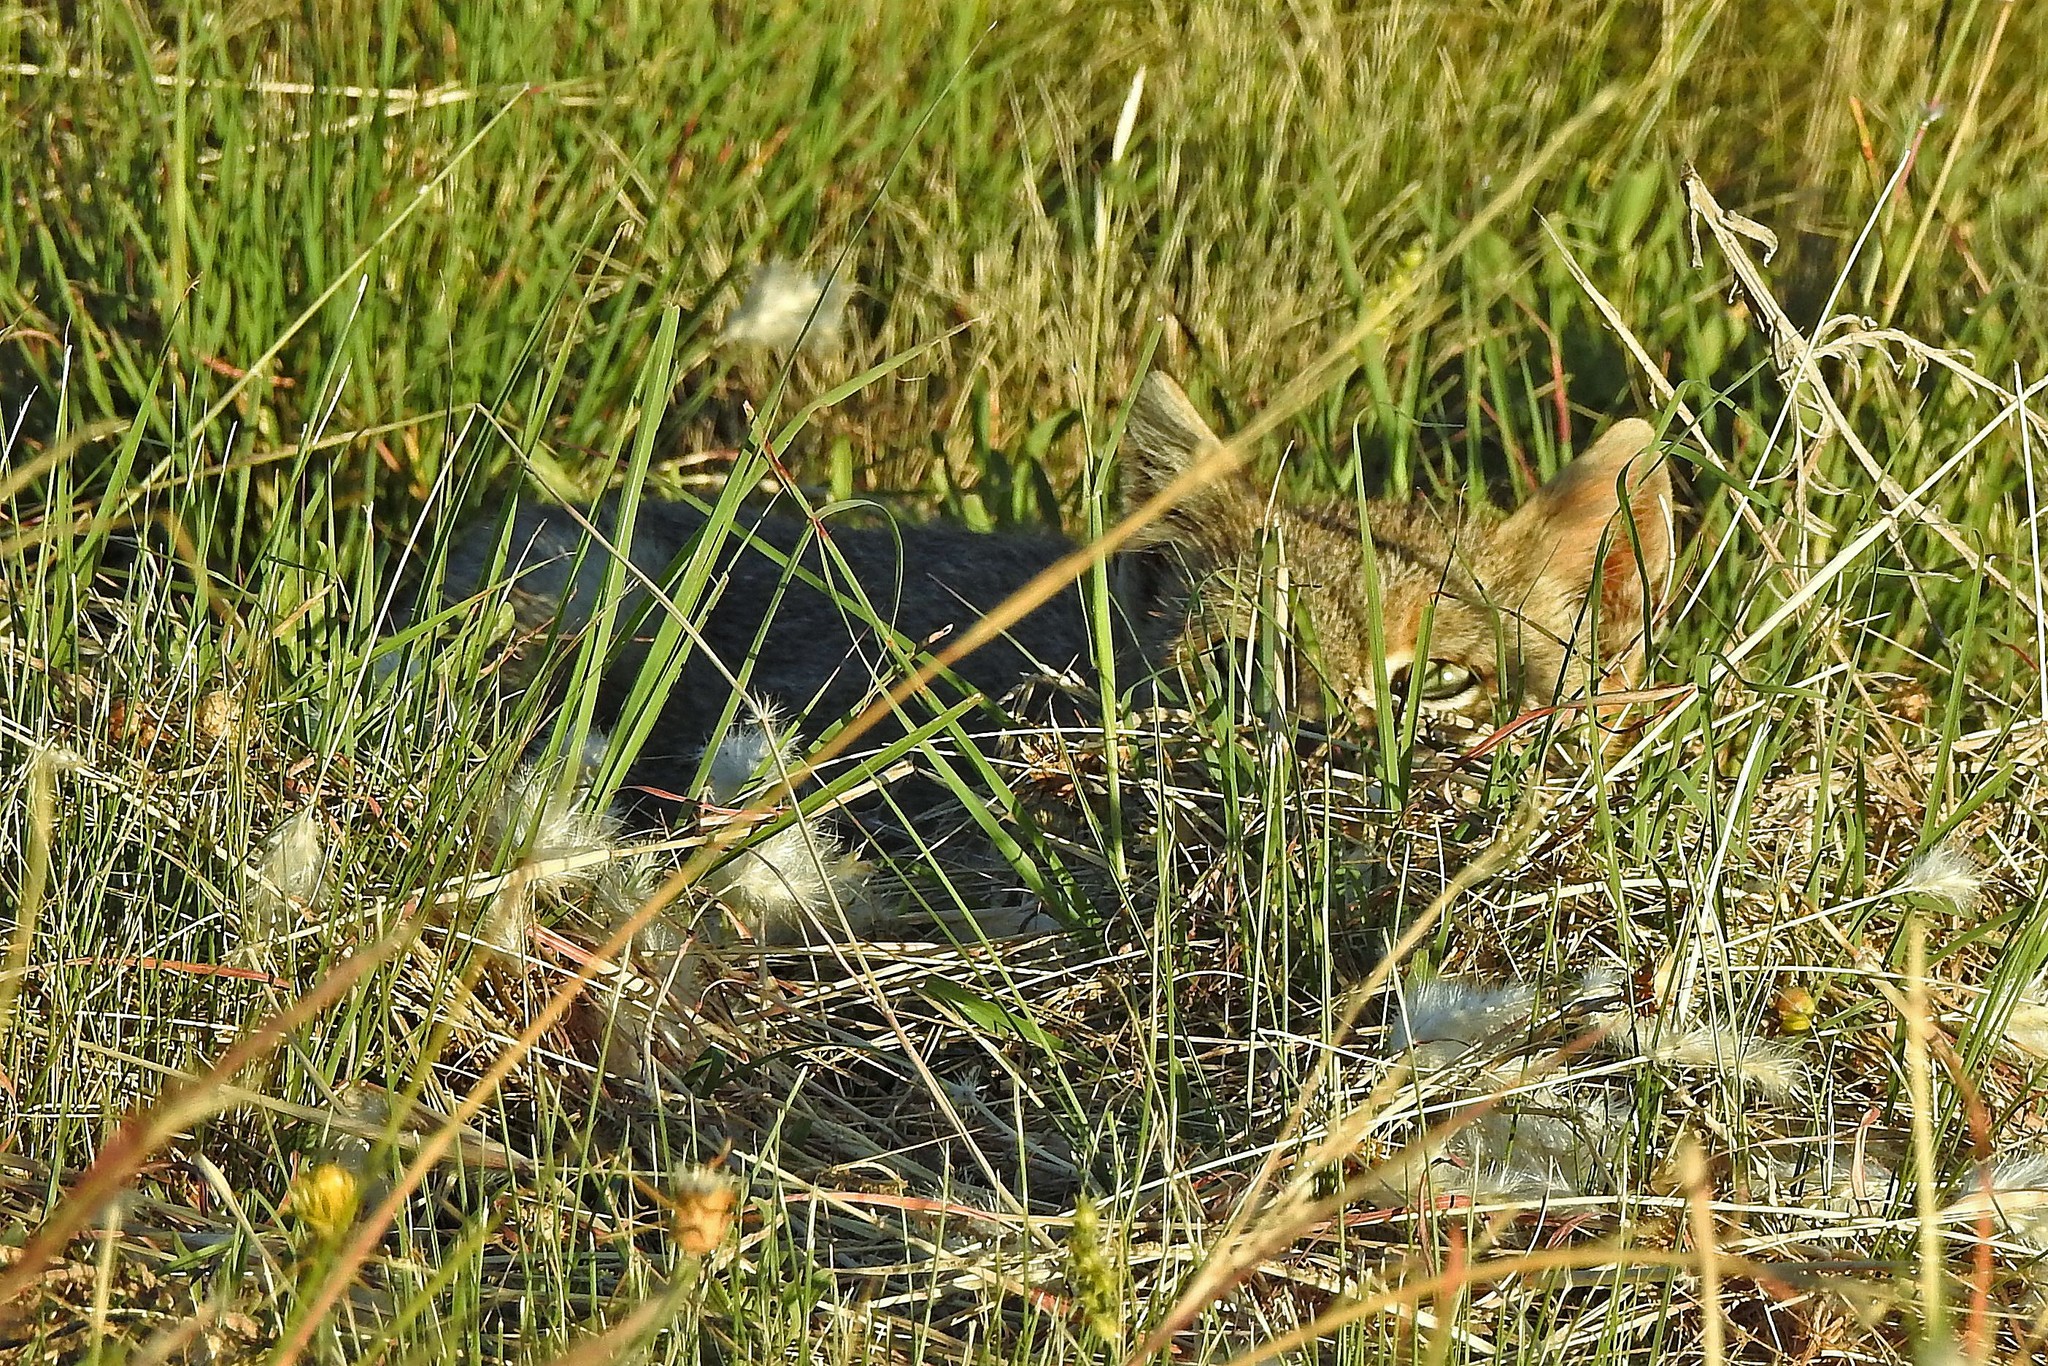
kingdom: Animalia
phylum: Chordata
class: Mammalia
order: Carnivora
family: Felidae
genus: Leopardus
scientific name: Leopardus pajeros
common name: Pampas cat
